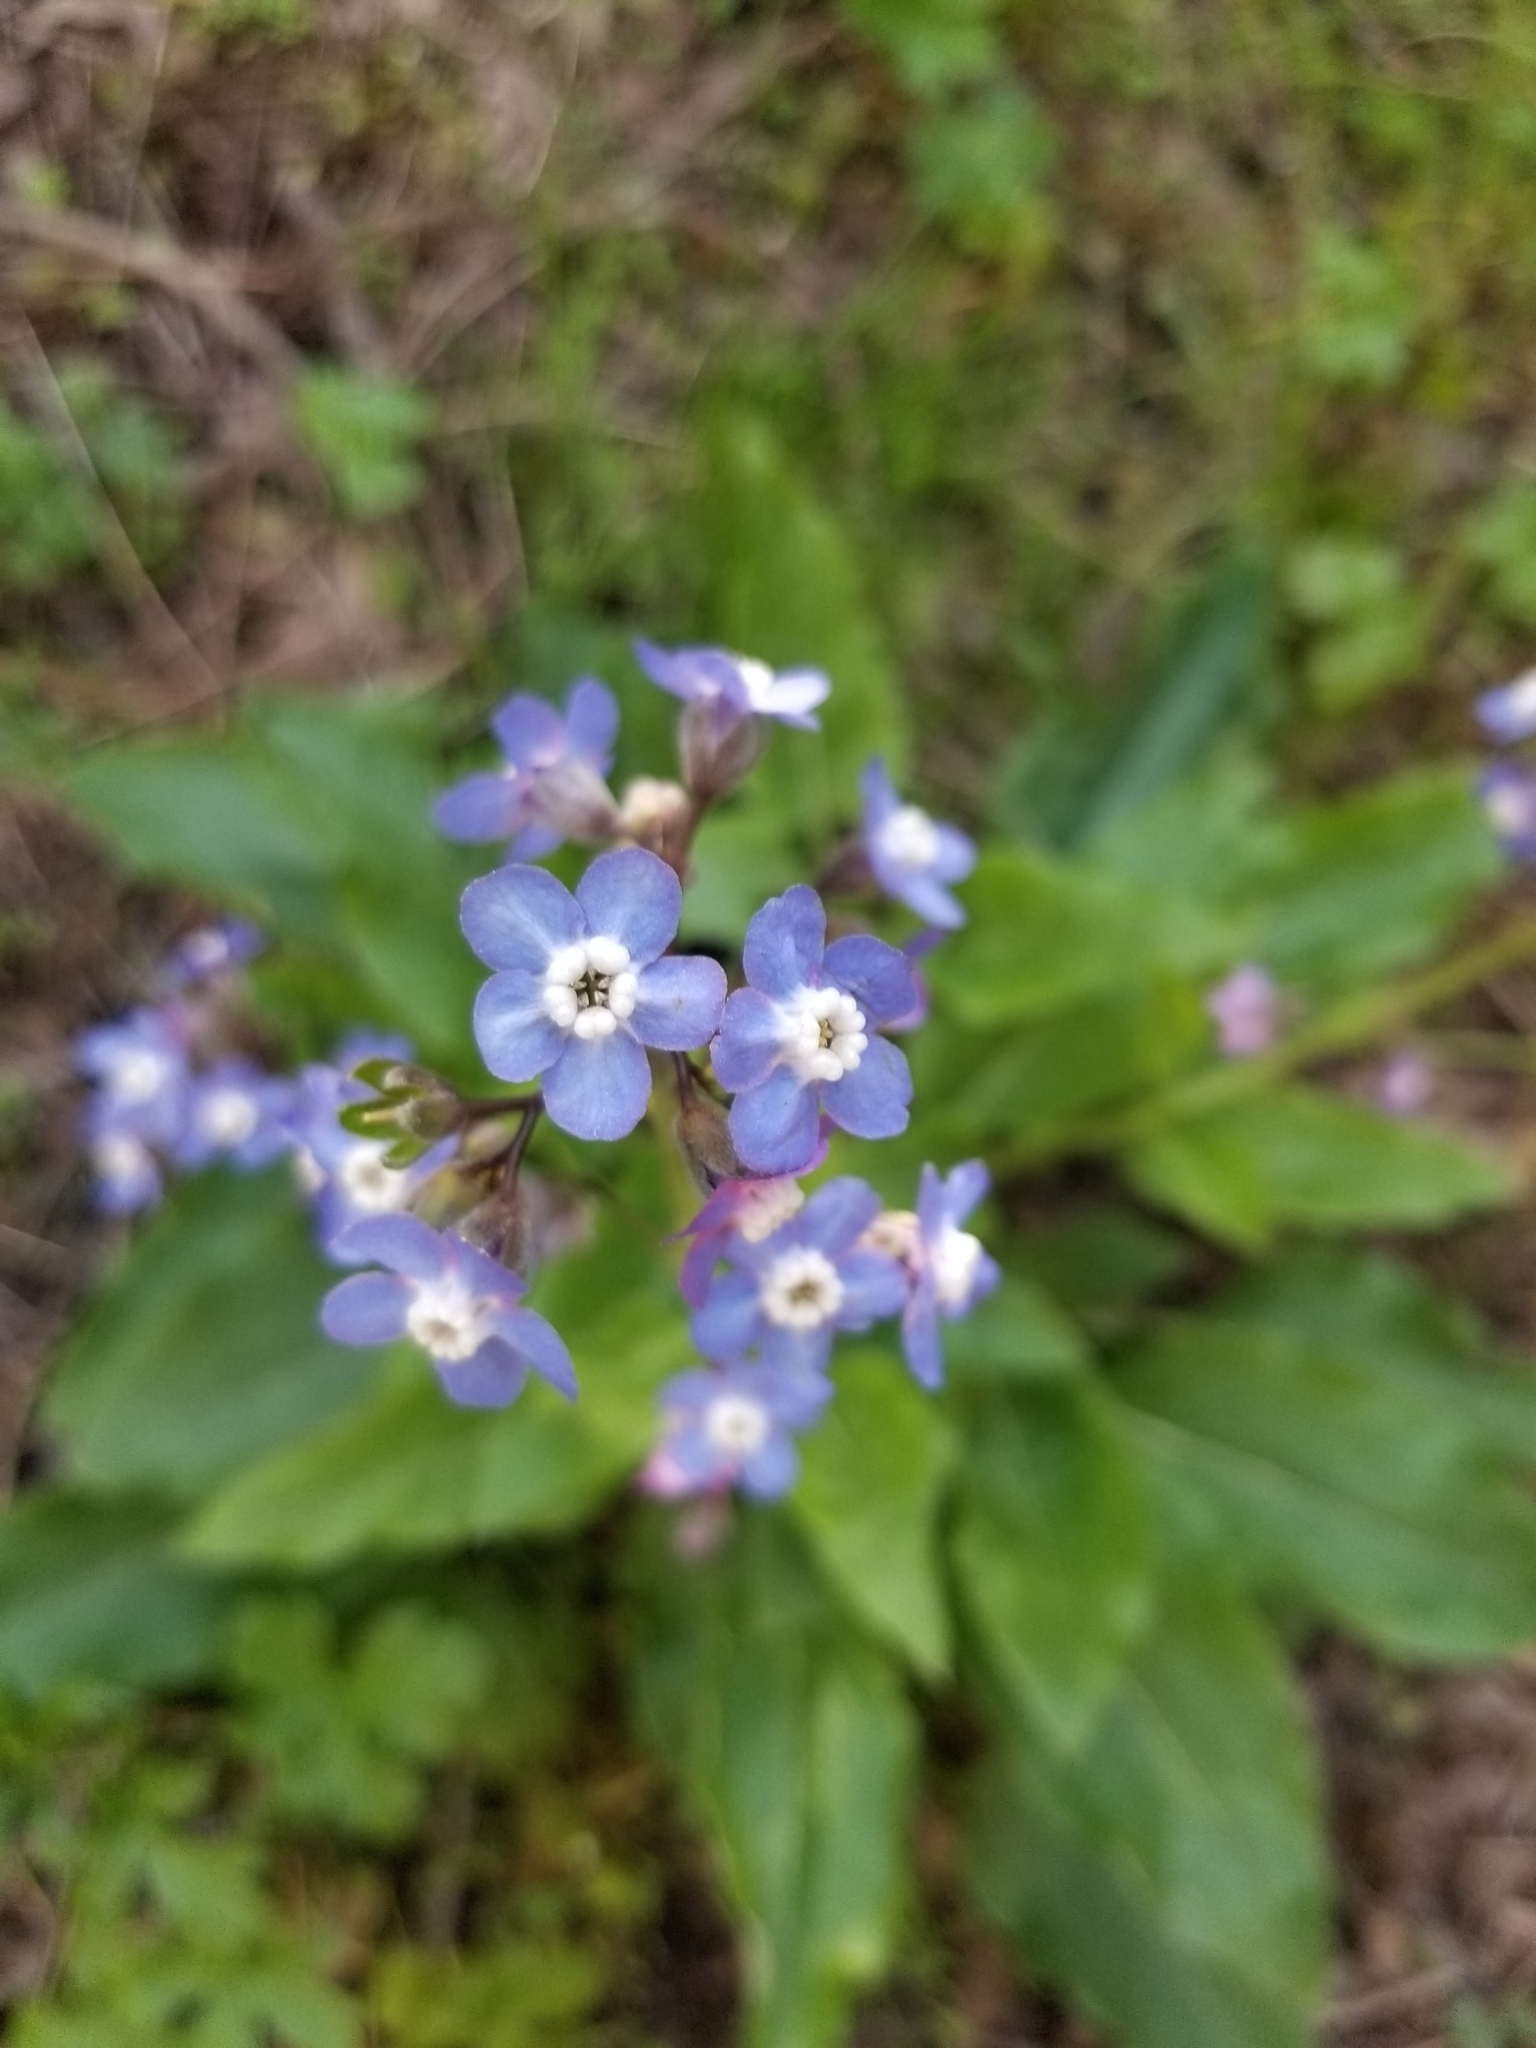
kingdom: Plantae
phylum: Tracheophyta
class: Magnoliopsida
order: Boraginales
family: Boraginaceae
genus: Adelinia
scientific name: Adelinia grande
